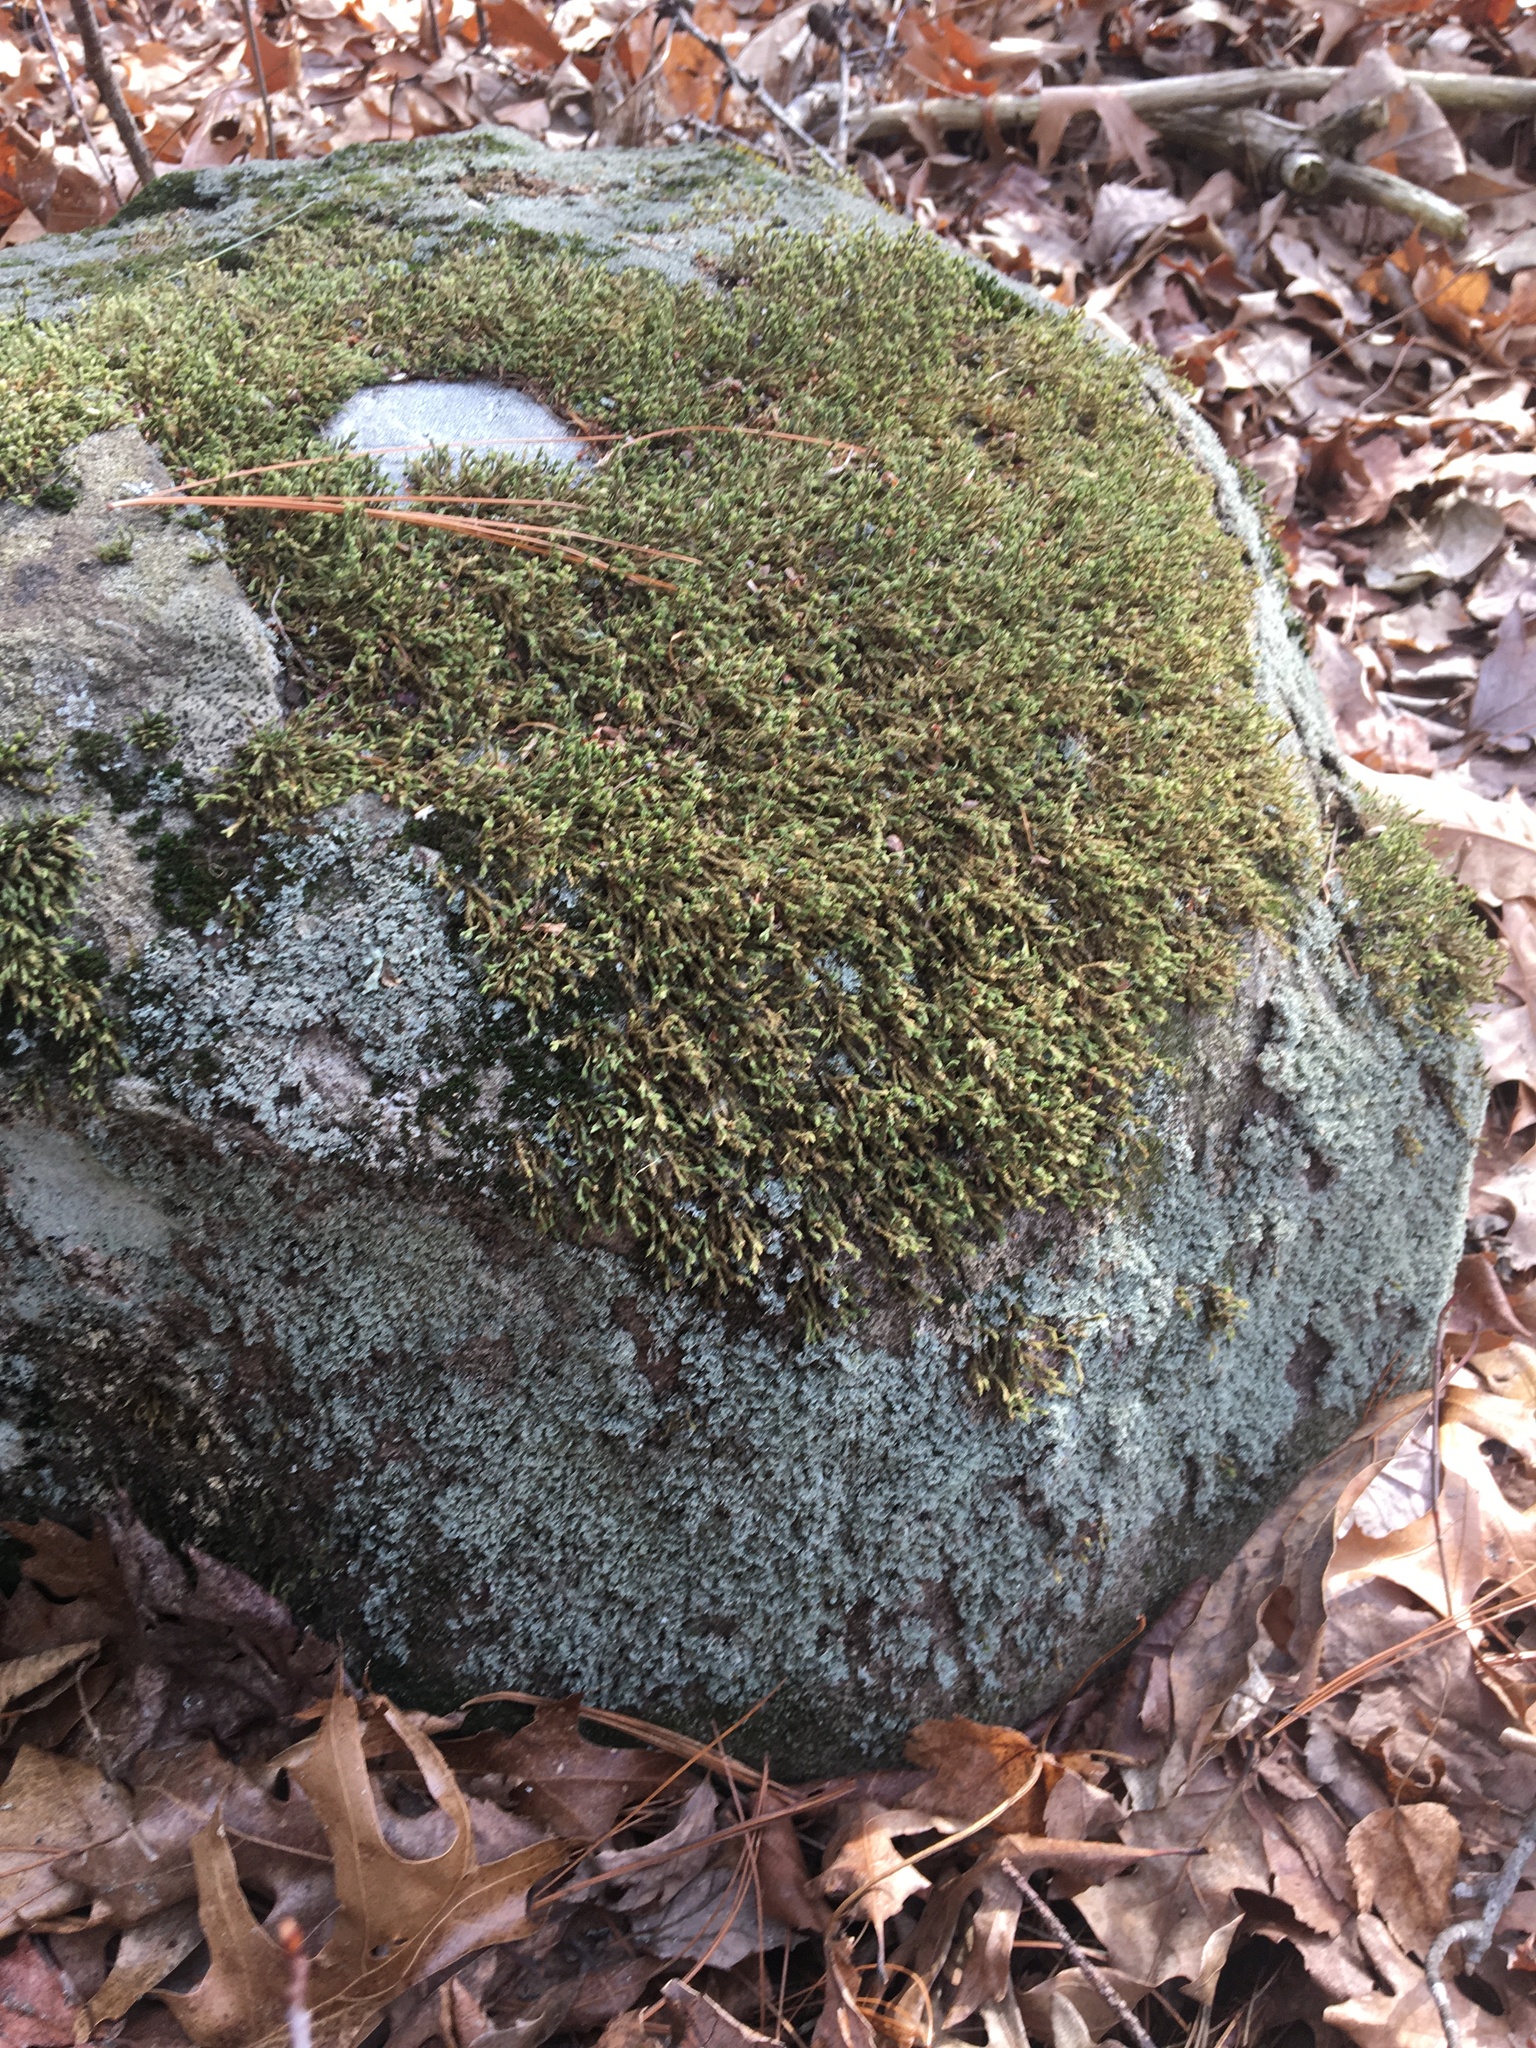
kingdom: Plantae
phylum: Bryophyta
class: Bryopsida
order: Hedwigiales
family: Hedwigiaceae
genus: Hedwigia
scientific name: Hedwigia ciliata
